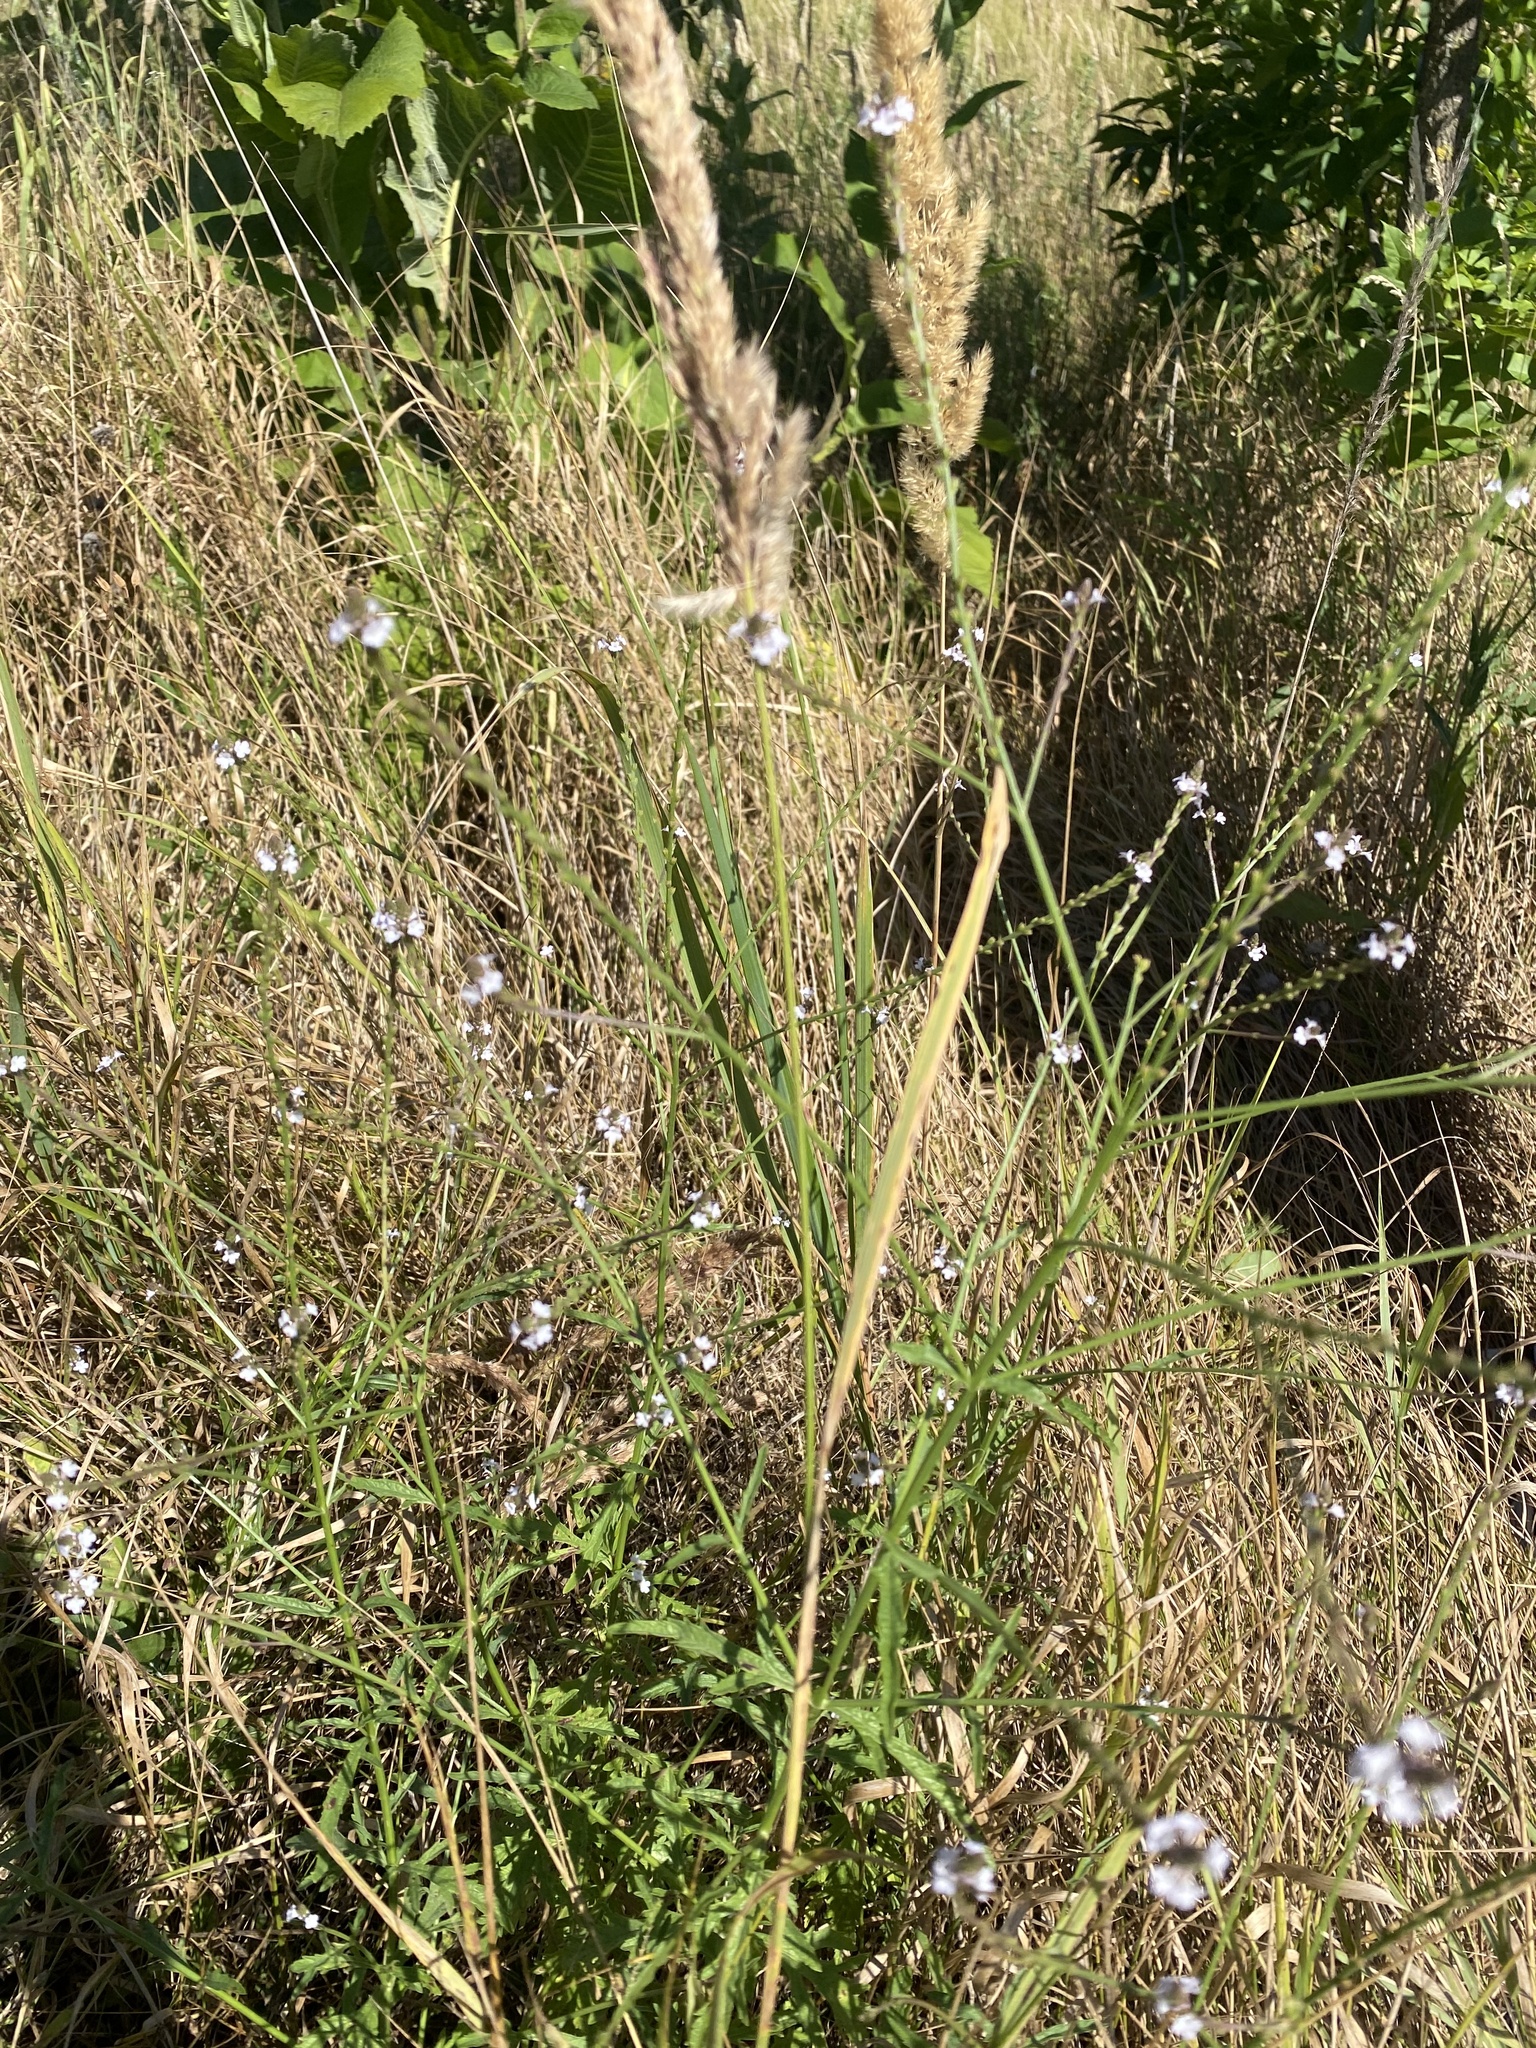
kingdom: Plantae
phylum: Tracheophyta
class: Magnoliopsida
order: Lamiales
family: Verbenaceae
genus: Verbena
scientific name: Verbena officinalis
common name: Vervain
